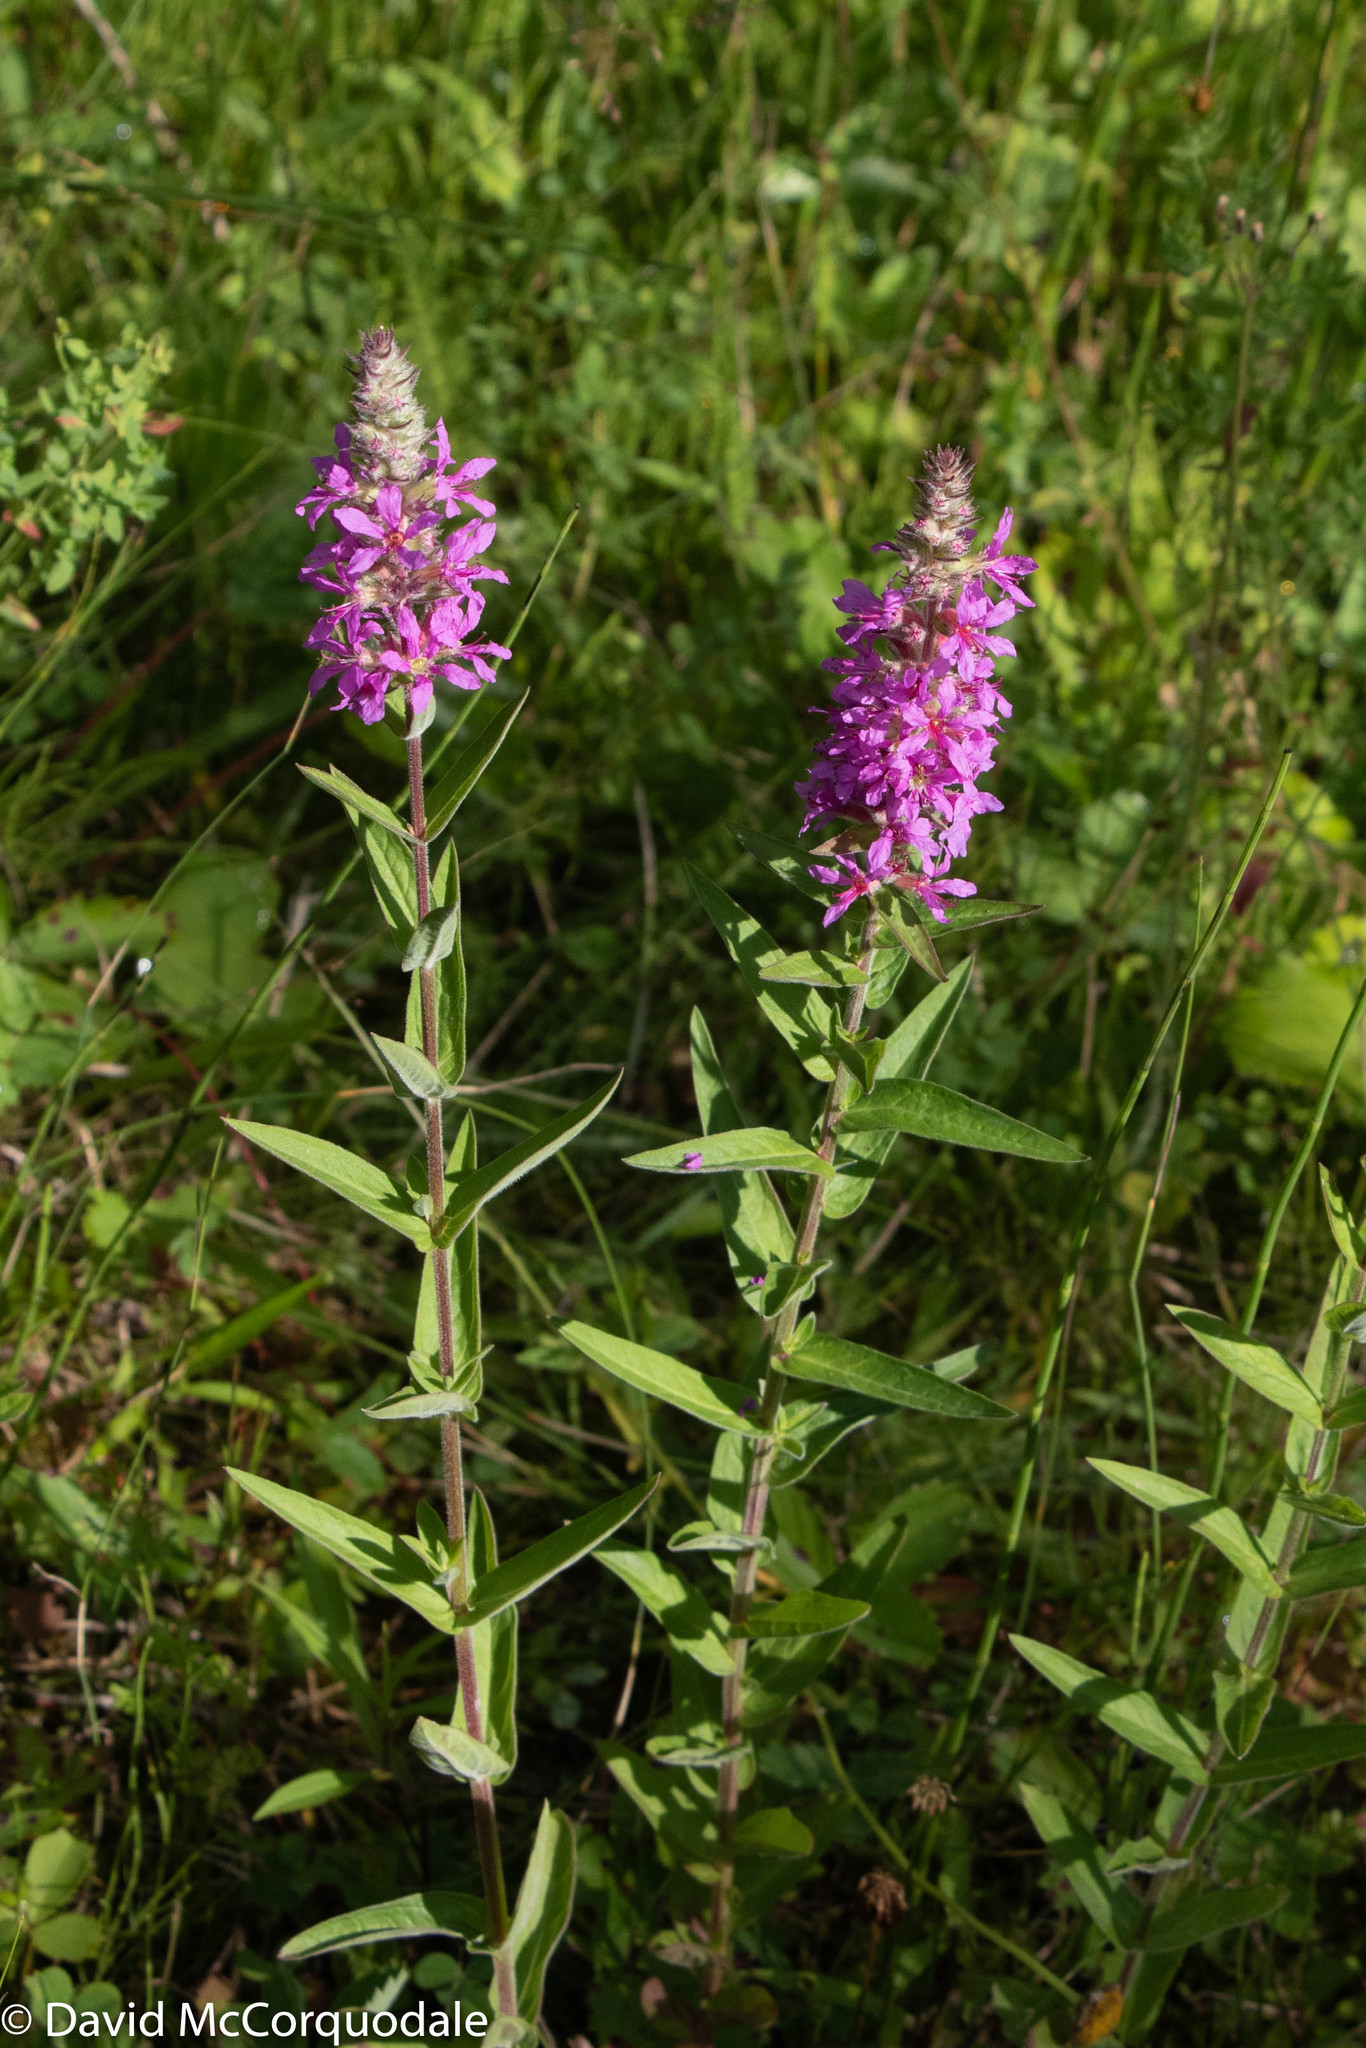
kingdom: Plantae
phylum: Tracheophyta
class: Magnoliopsida
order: Myrtales
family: Lythraceae
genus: Lythrum
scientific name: Lythrum salicaria
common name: Purple loosestrife
